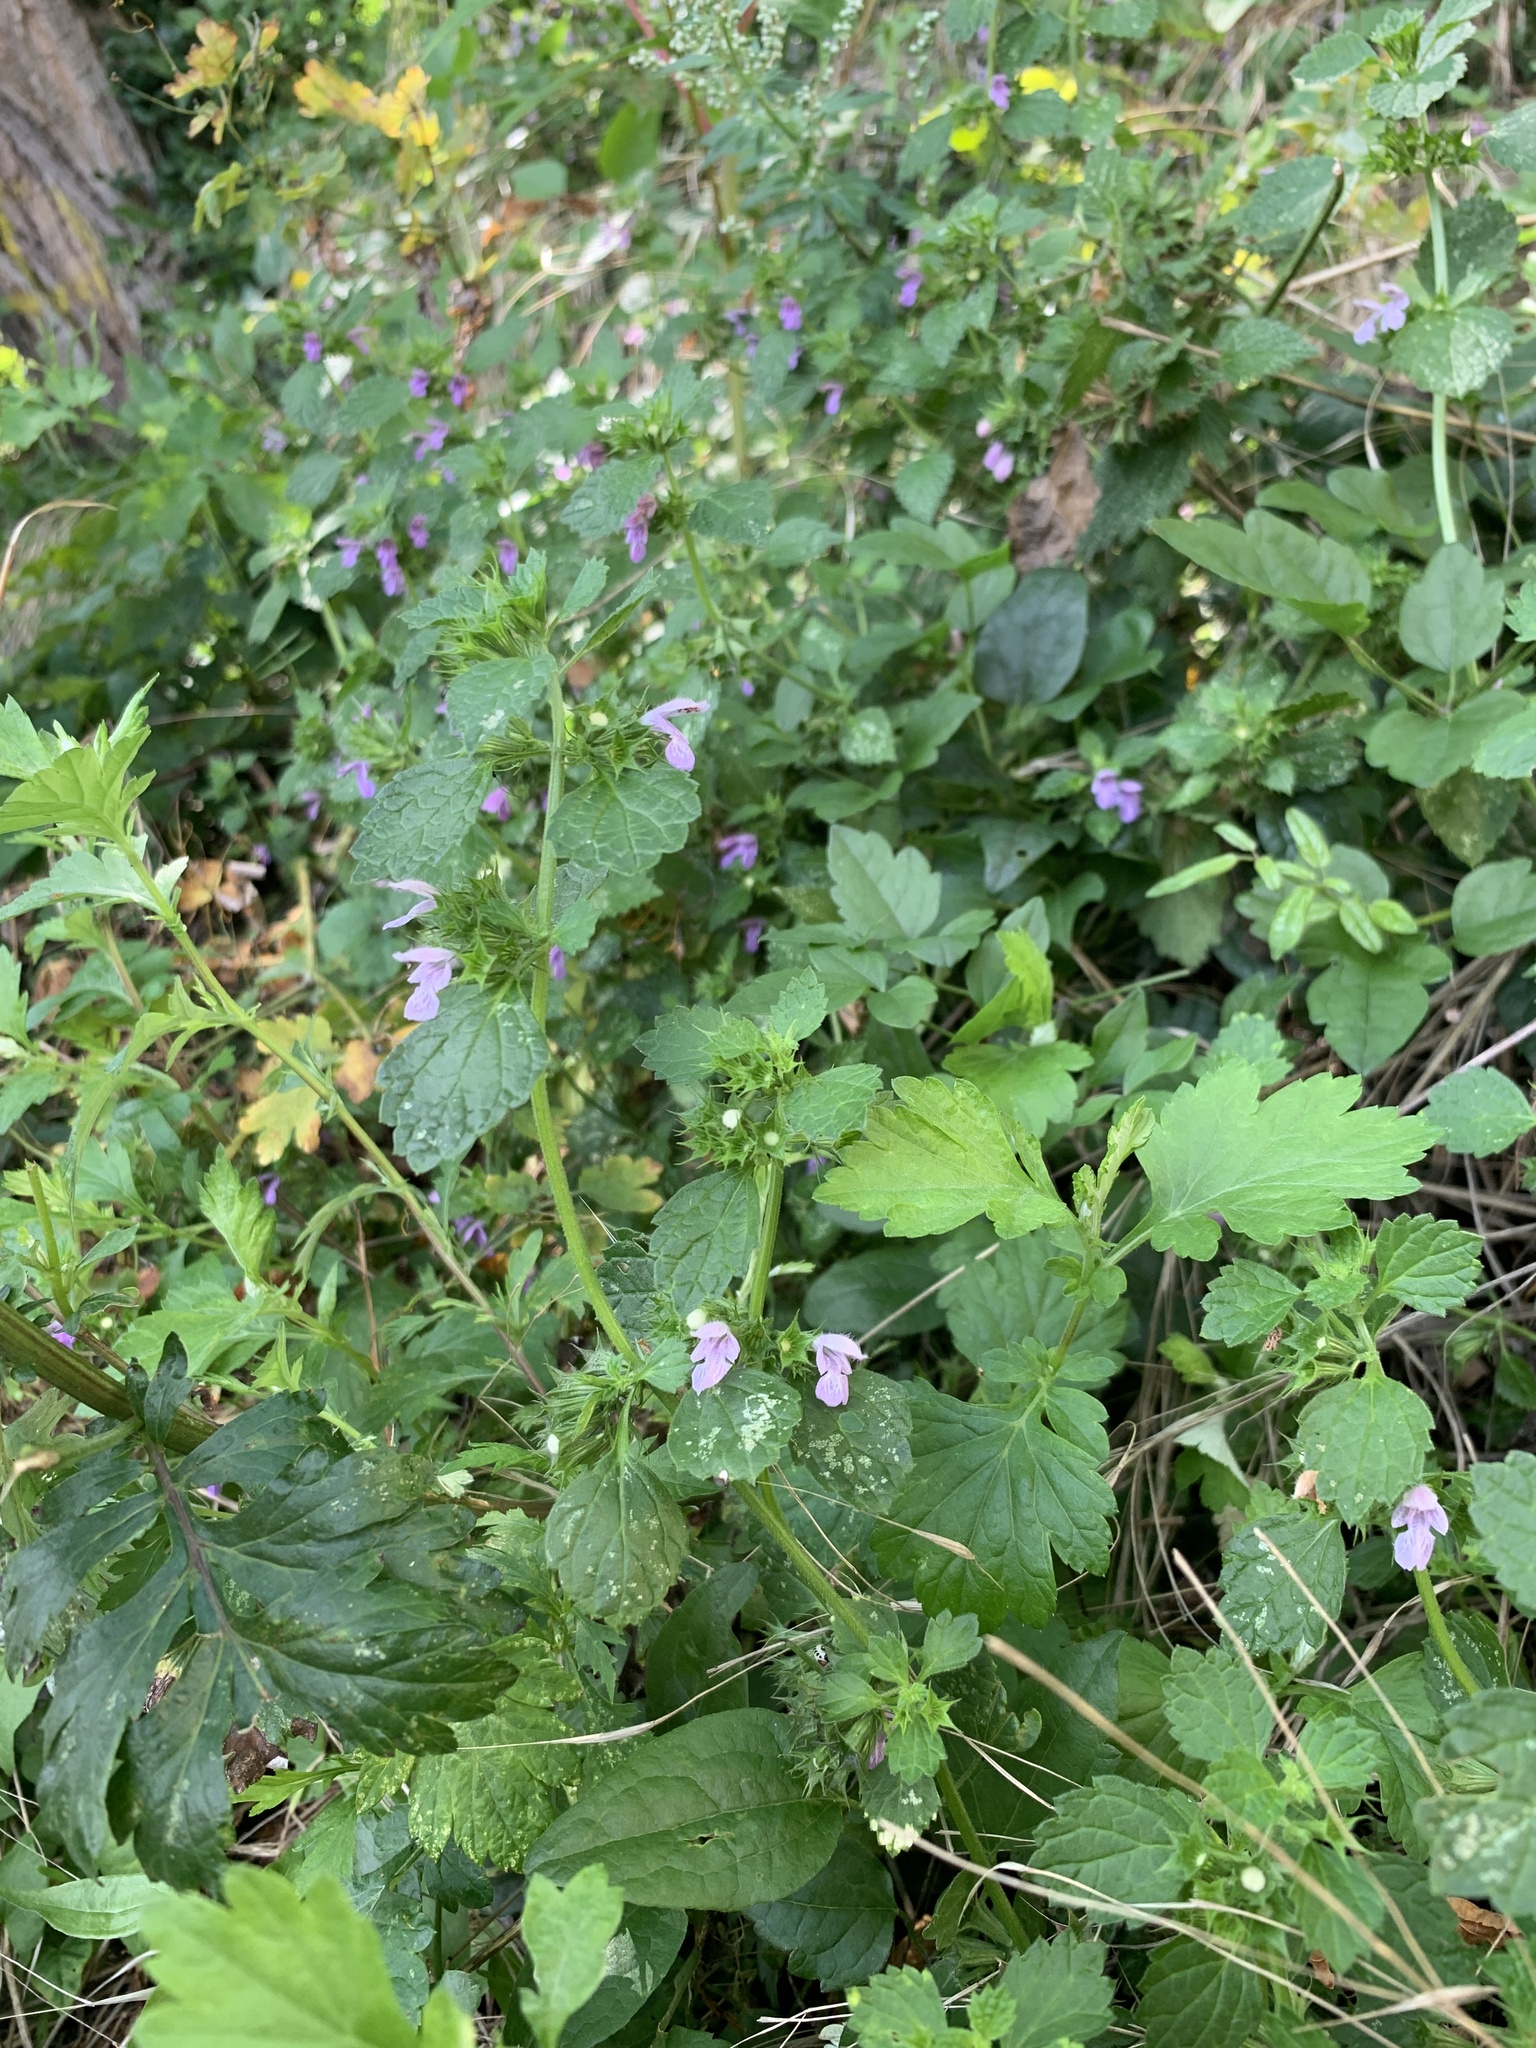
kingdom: Plantae
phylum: Tracheophyta
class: Magnoliopsida
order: Lamiales
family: Lamiaceae
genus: Ballota
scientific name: Ballota nigra
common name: Black horehound
